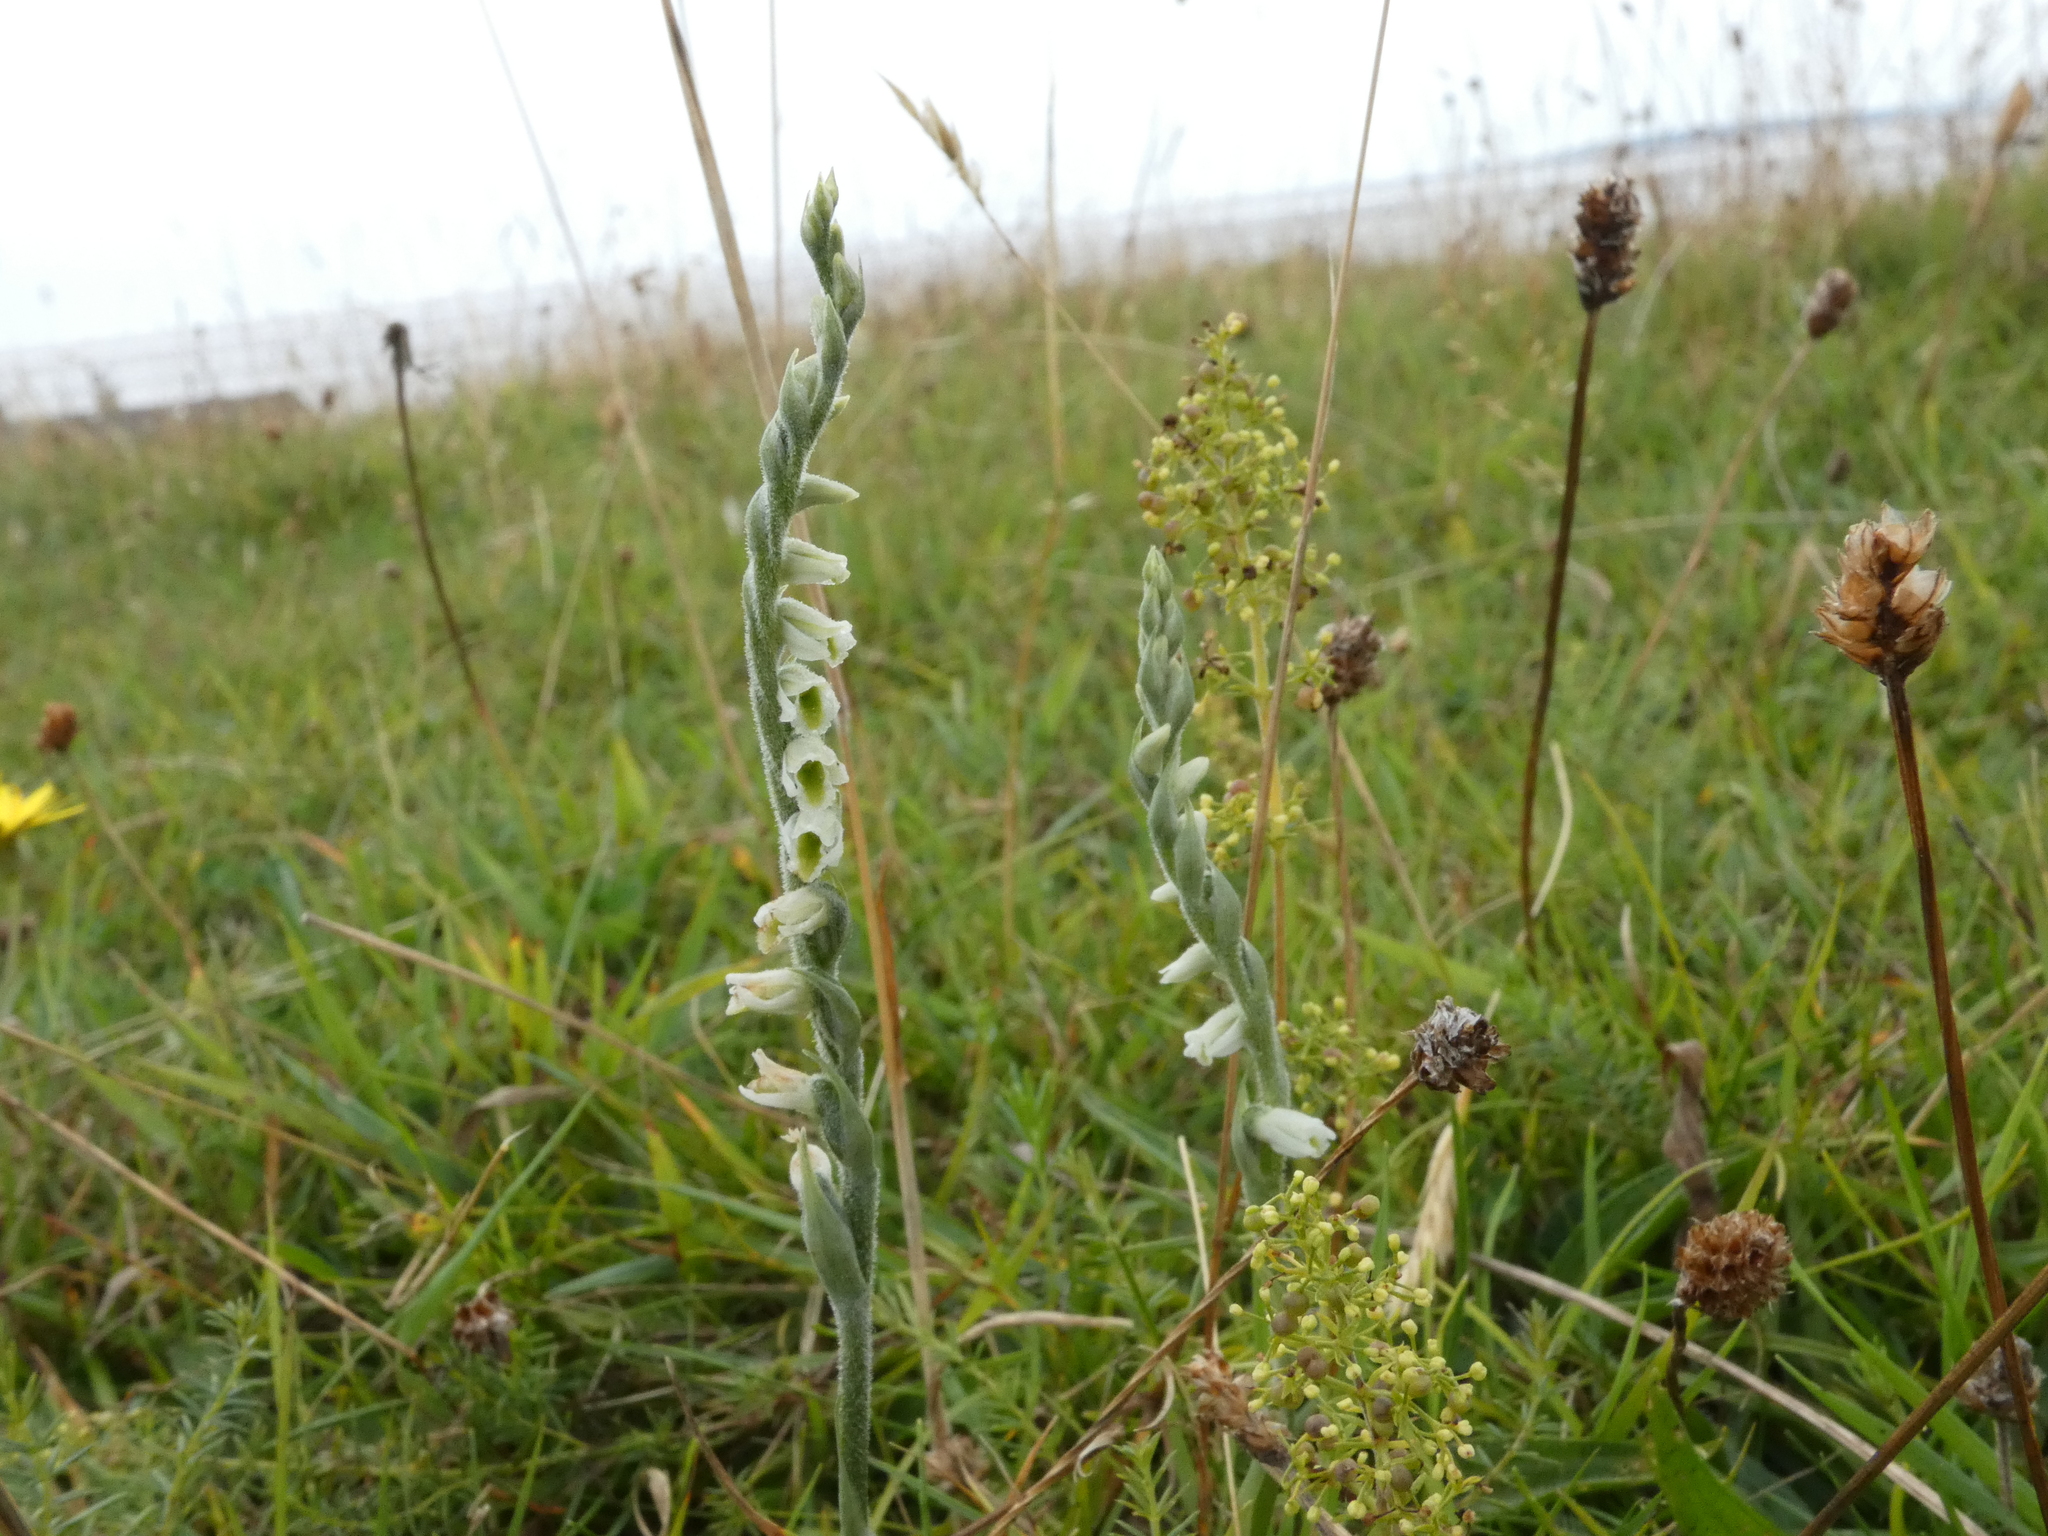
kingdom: Plantae
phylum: Tracheophyta
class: Liliopsida
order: Asparagales
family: Orchidaceae
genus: Spiranthes
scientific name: Spiranthes spiralis
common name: Autumn lady's-tresses
